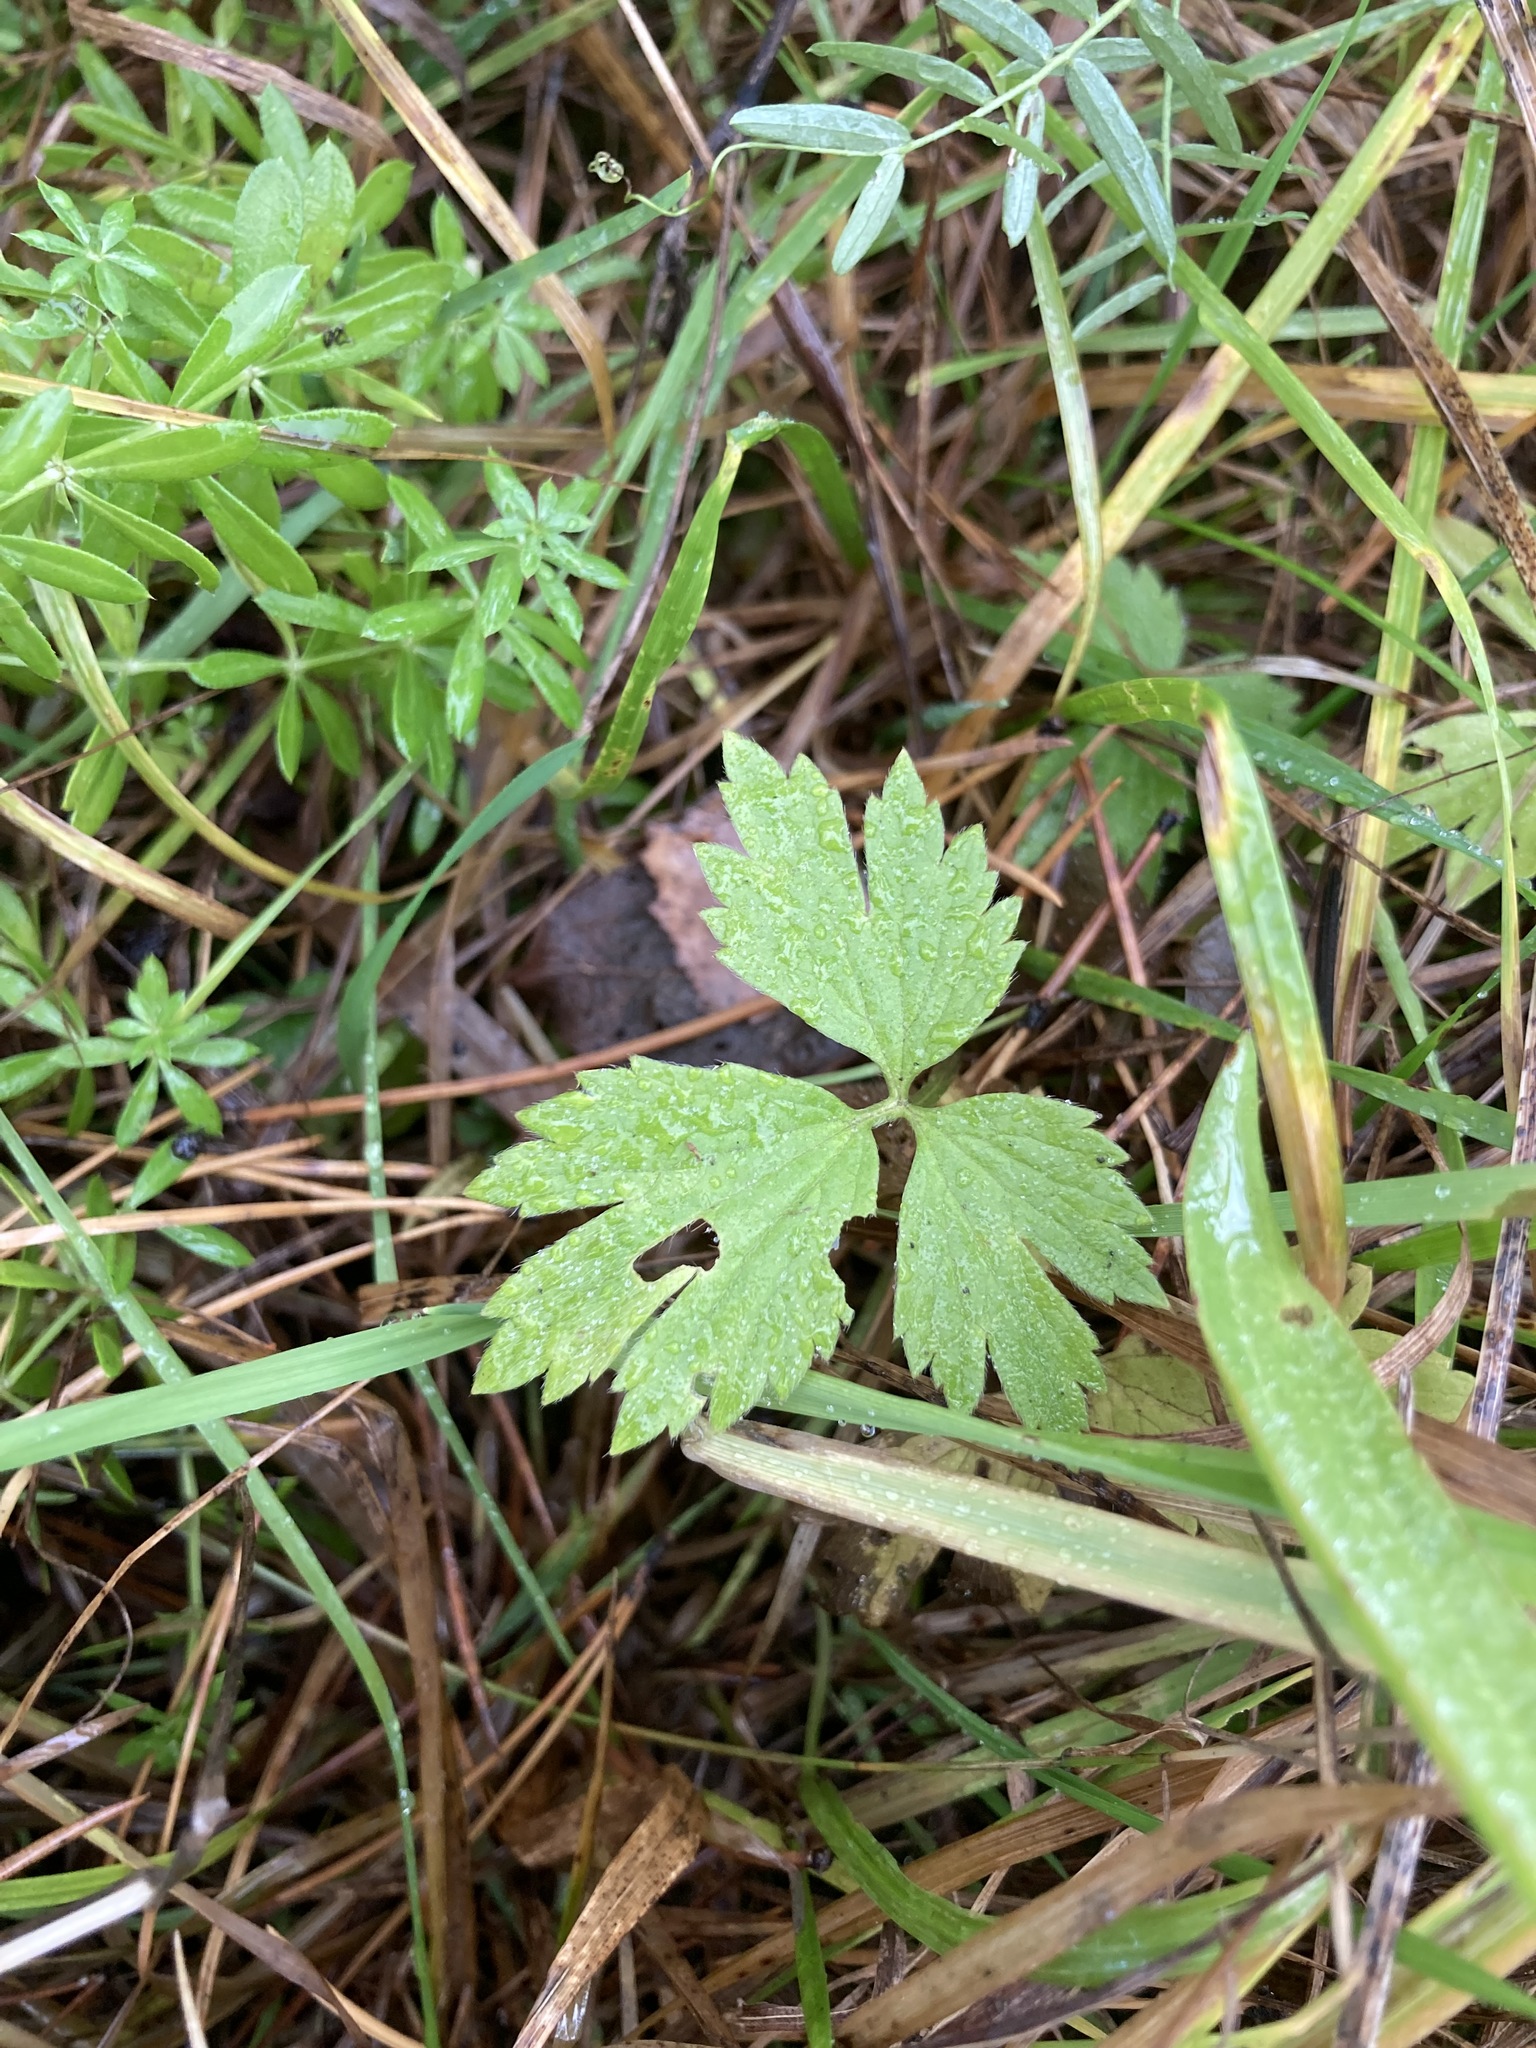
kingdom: Plantae
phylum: Tracheophyta
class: Magnoliopsida
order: Ranunculales
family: Ranunculaceae
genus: Ranunculus
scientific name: Ranunculus repens
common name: Creeping buttercup
